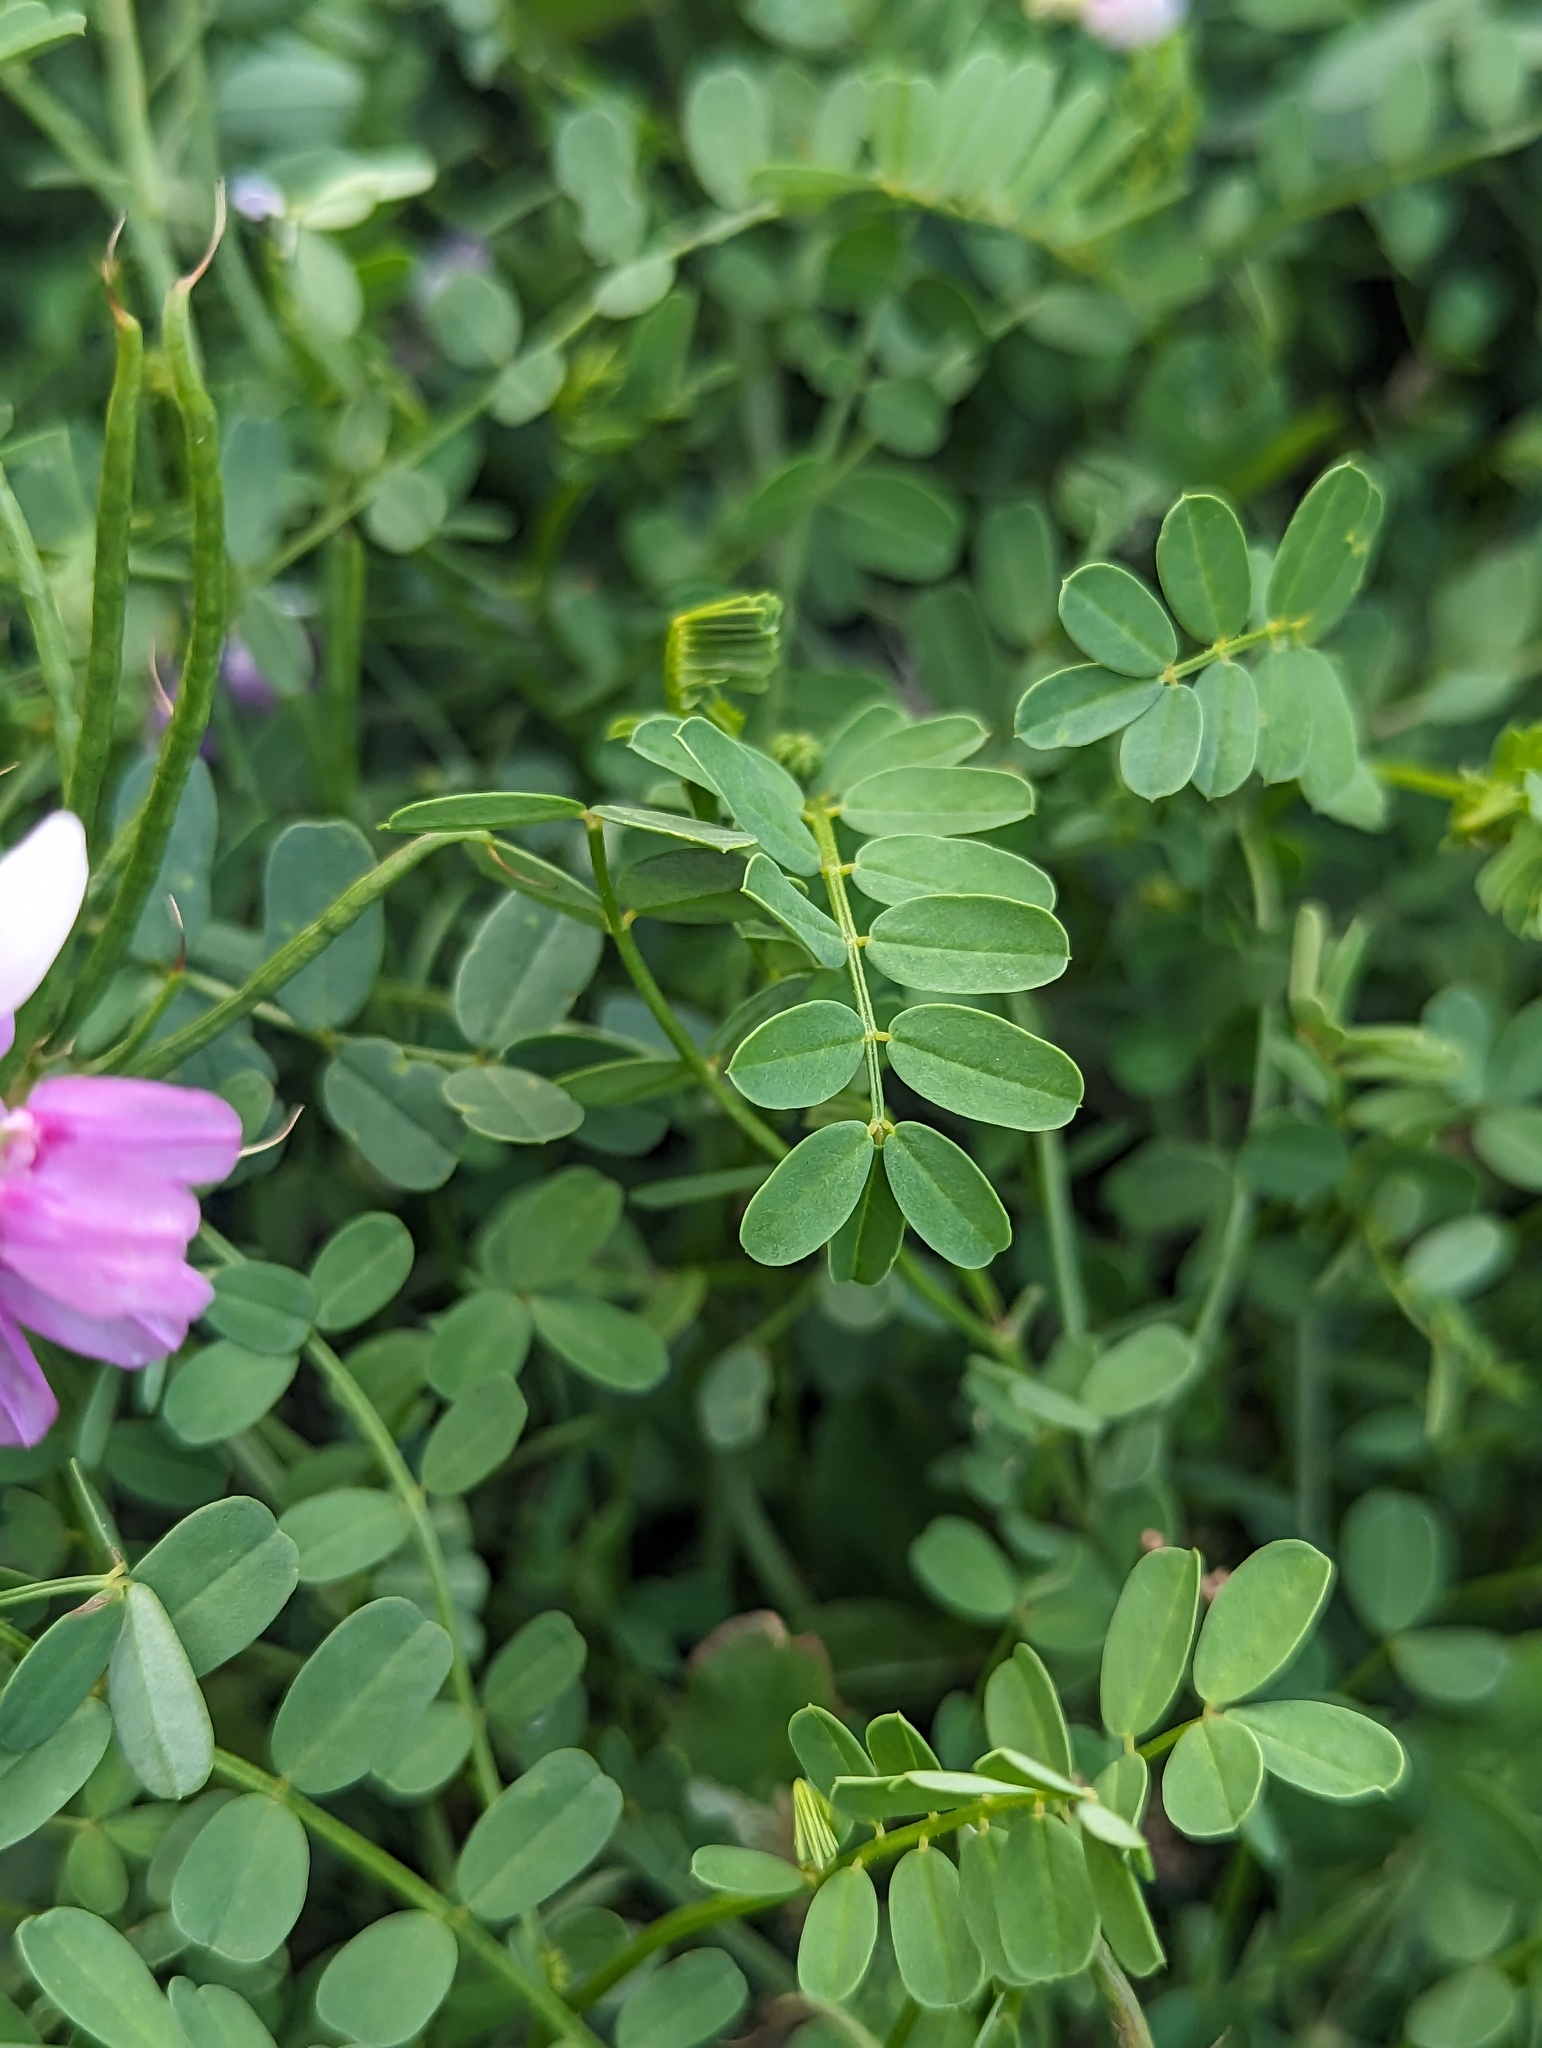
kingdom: Plantae
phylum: Tracheophyta
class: Magnoliopsida
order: Fabales
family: Fabaceae
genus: Coronilla
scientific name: Coronilla varia
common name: Crownvetch
